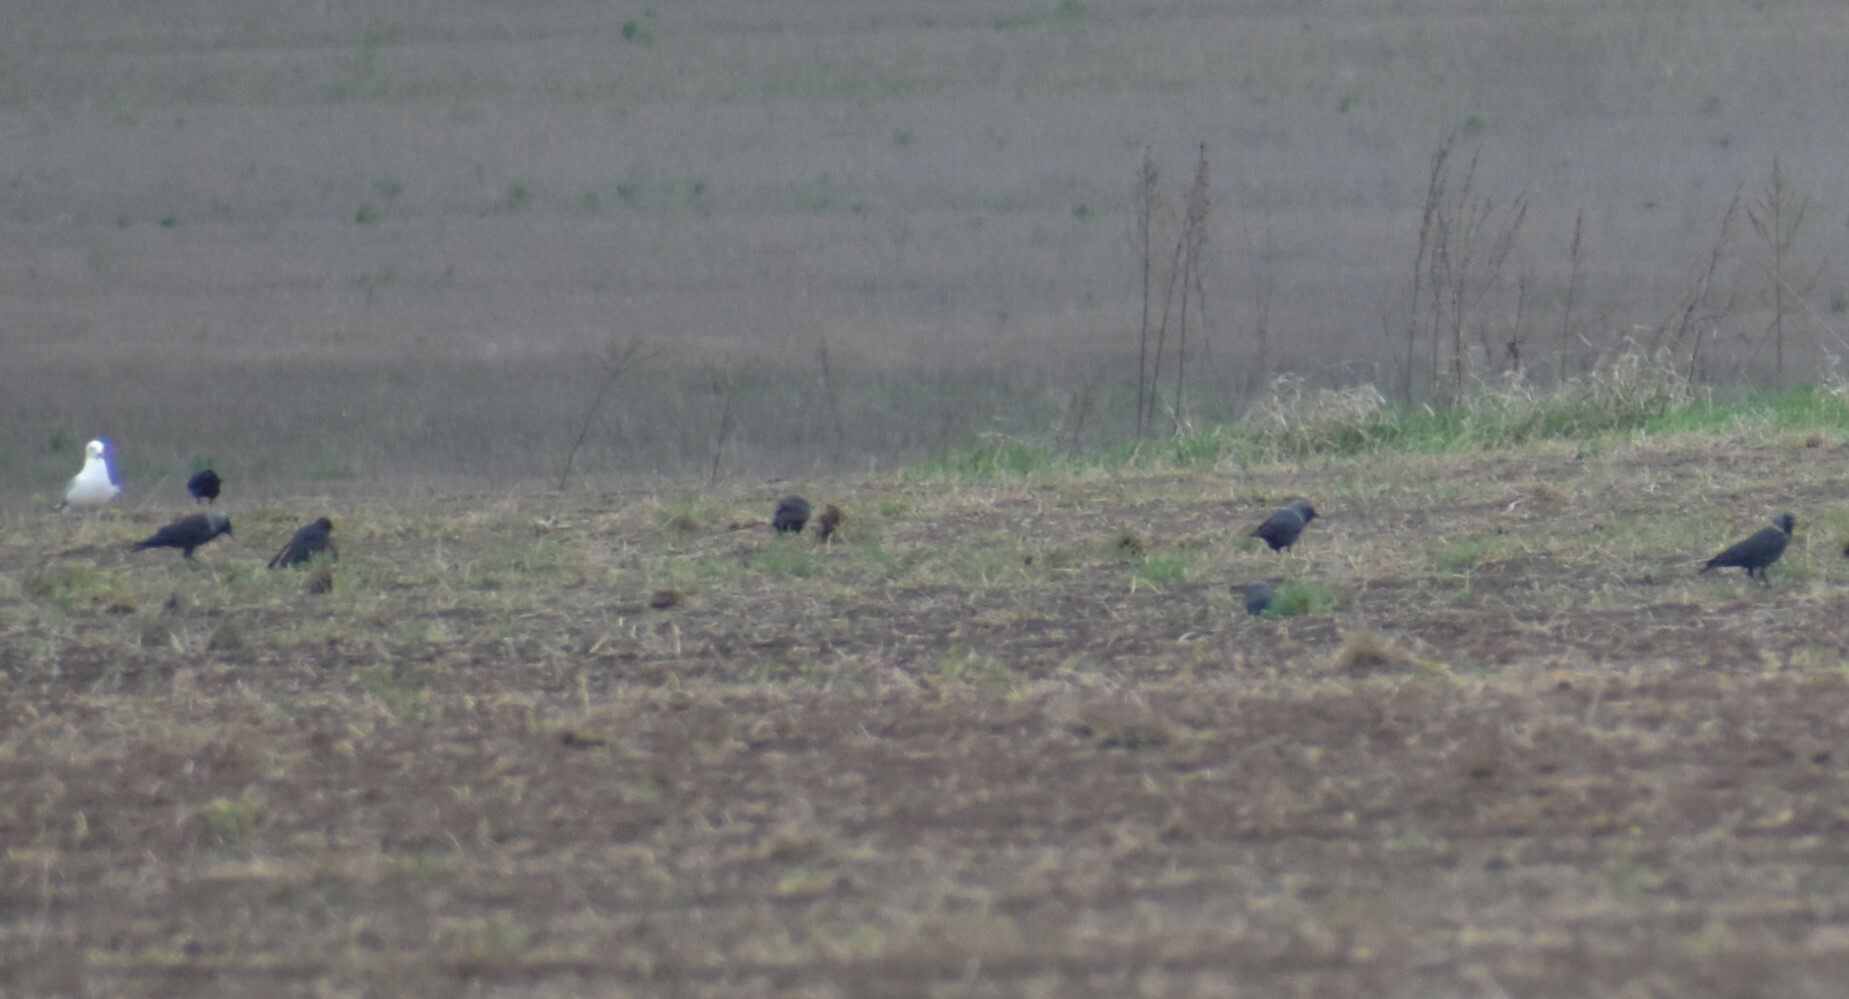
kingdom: Animalia
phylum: Chordata
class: Aves
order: Passeriformes
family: Corvidae
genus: Coloeus
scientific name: Coloeus monedula
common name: Western jackdaw
